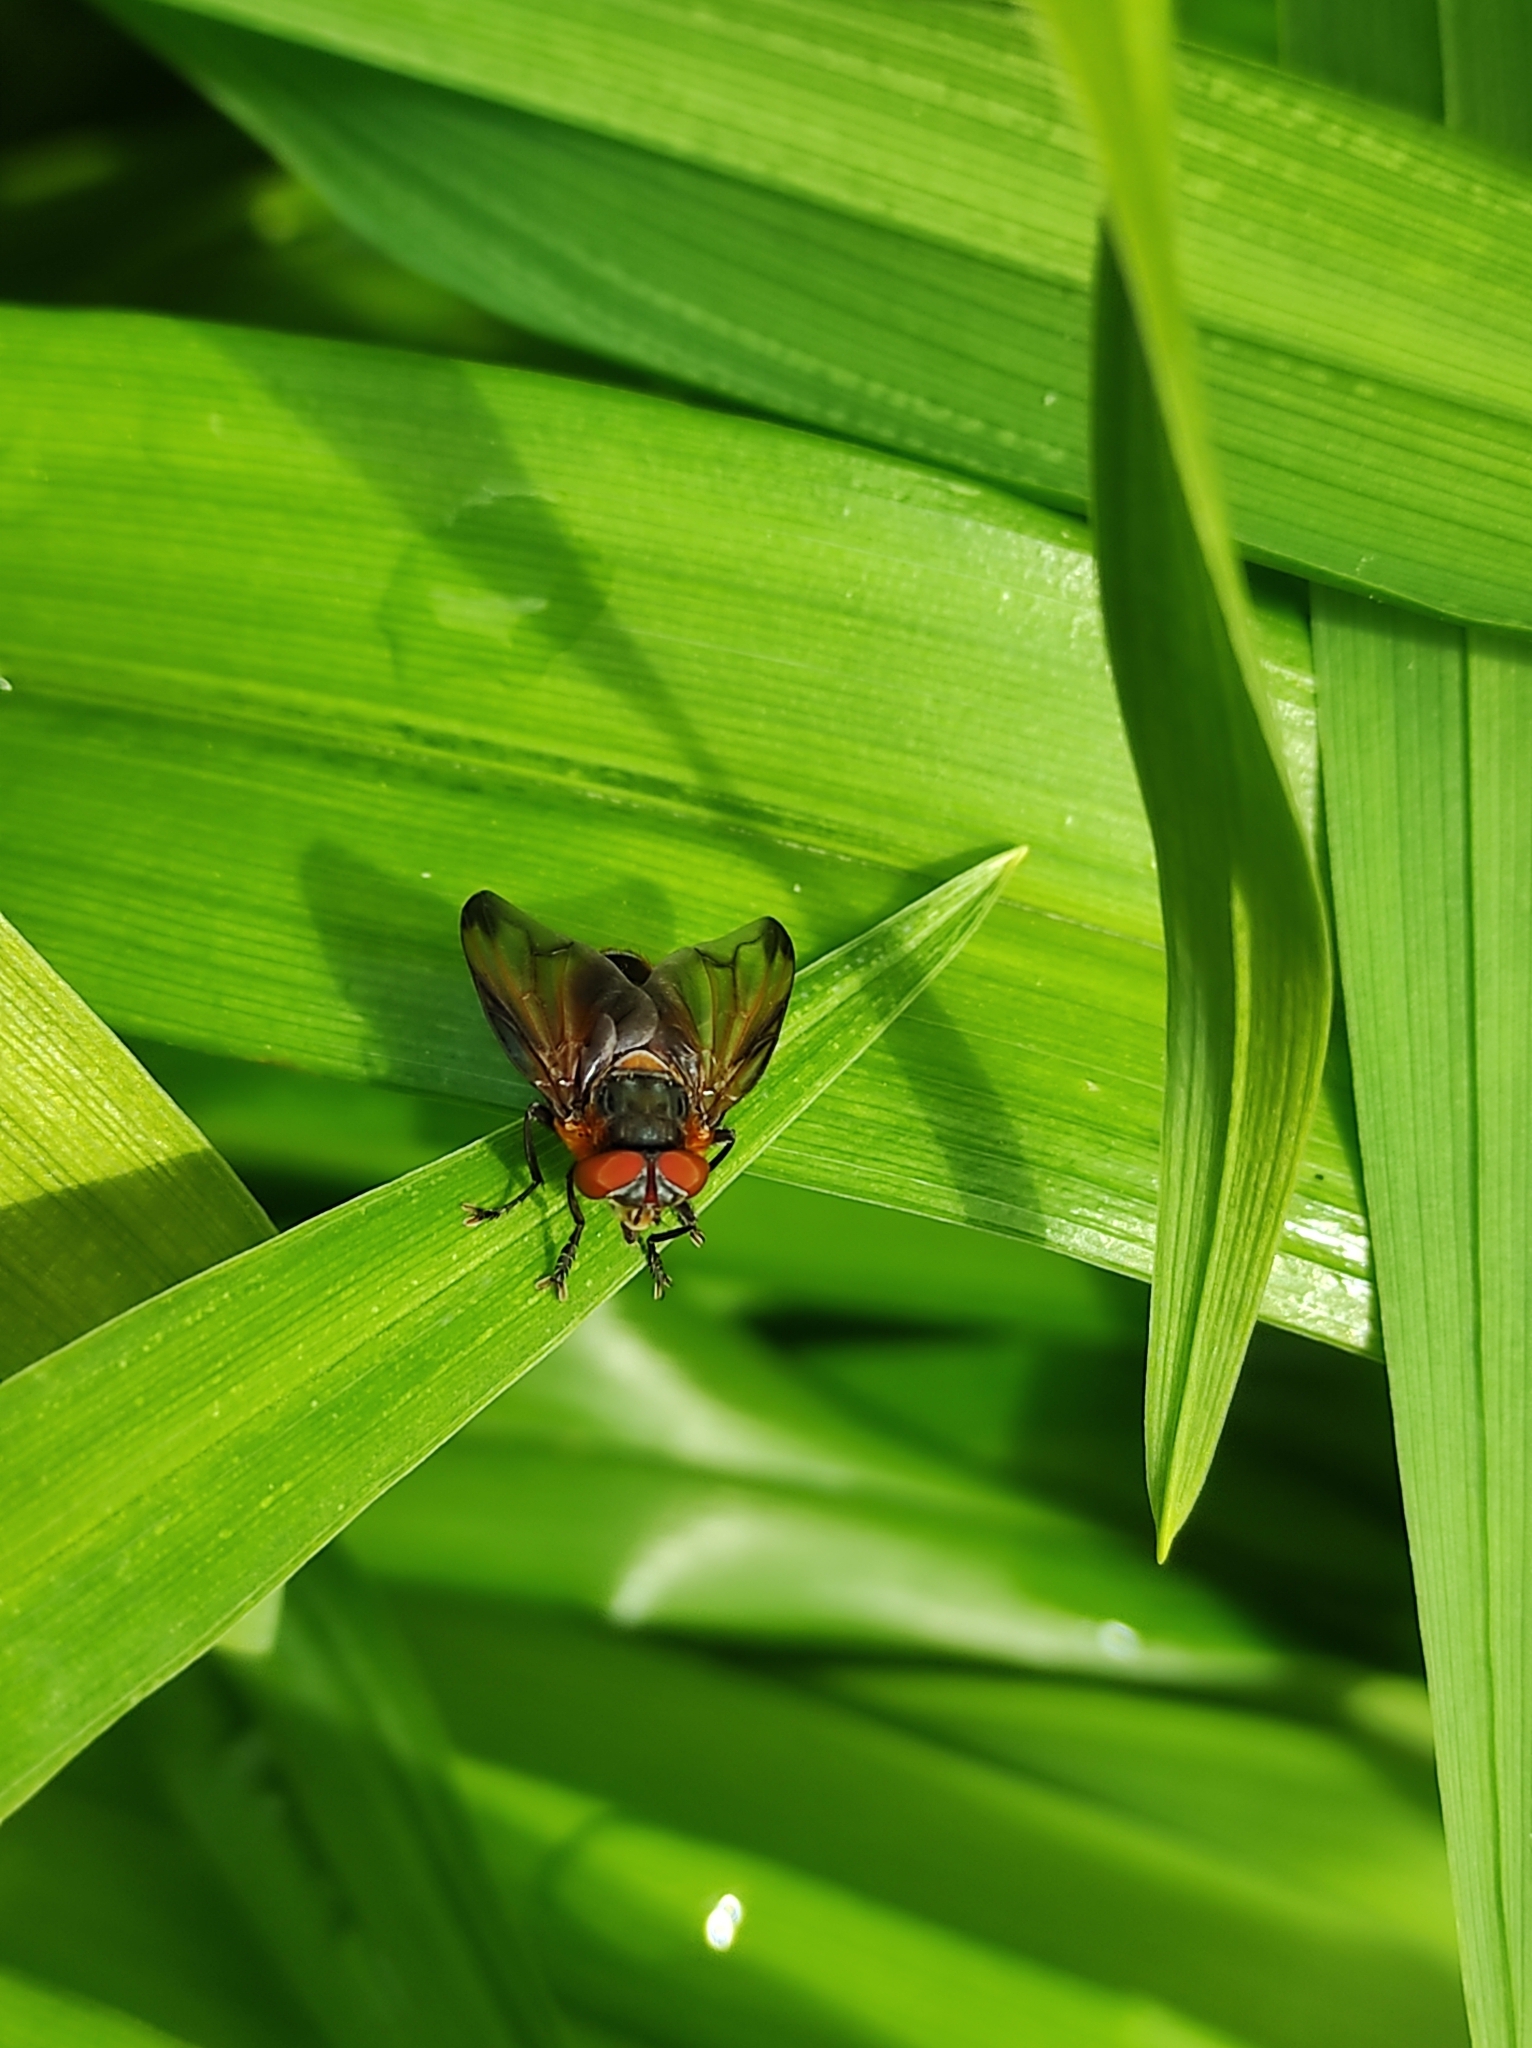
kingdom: Animalia
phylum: Arthropoda
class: Insecta
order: Diptera
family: Tachinidae
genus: Phasia
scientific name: Phasia hemiptera
